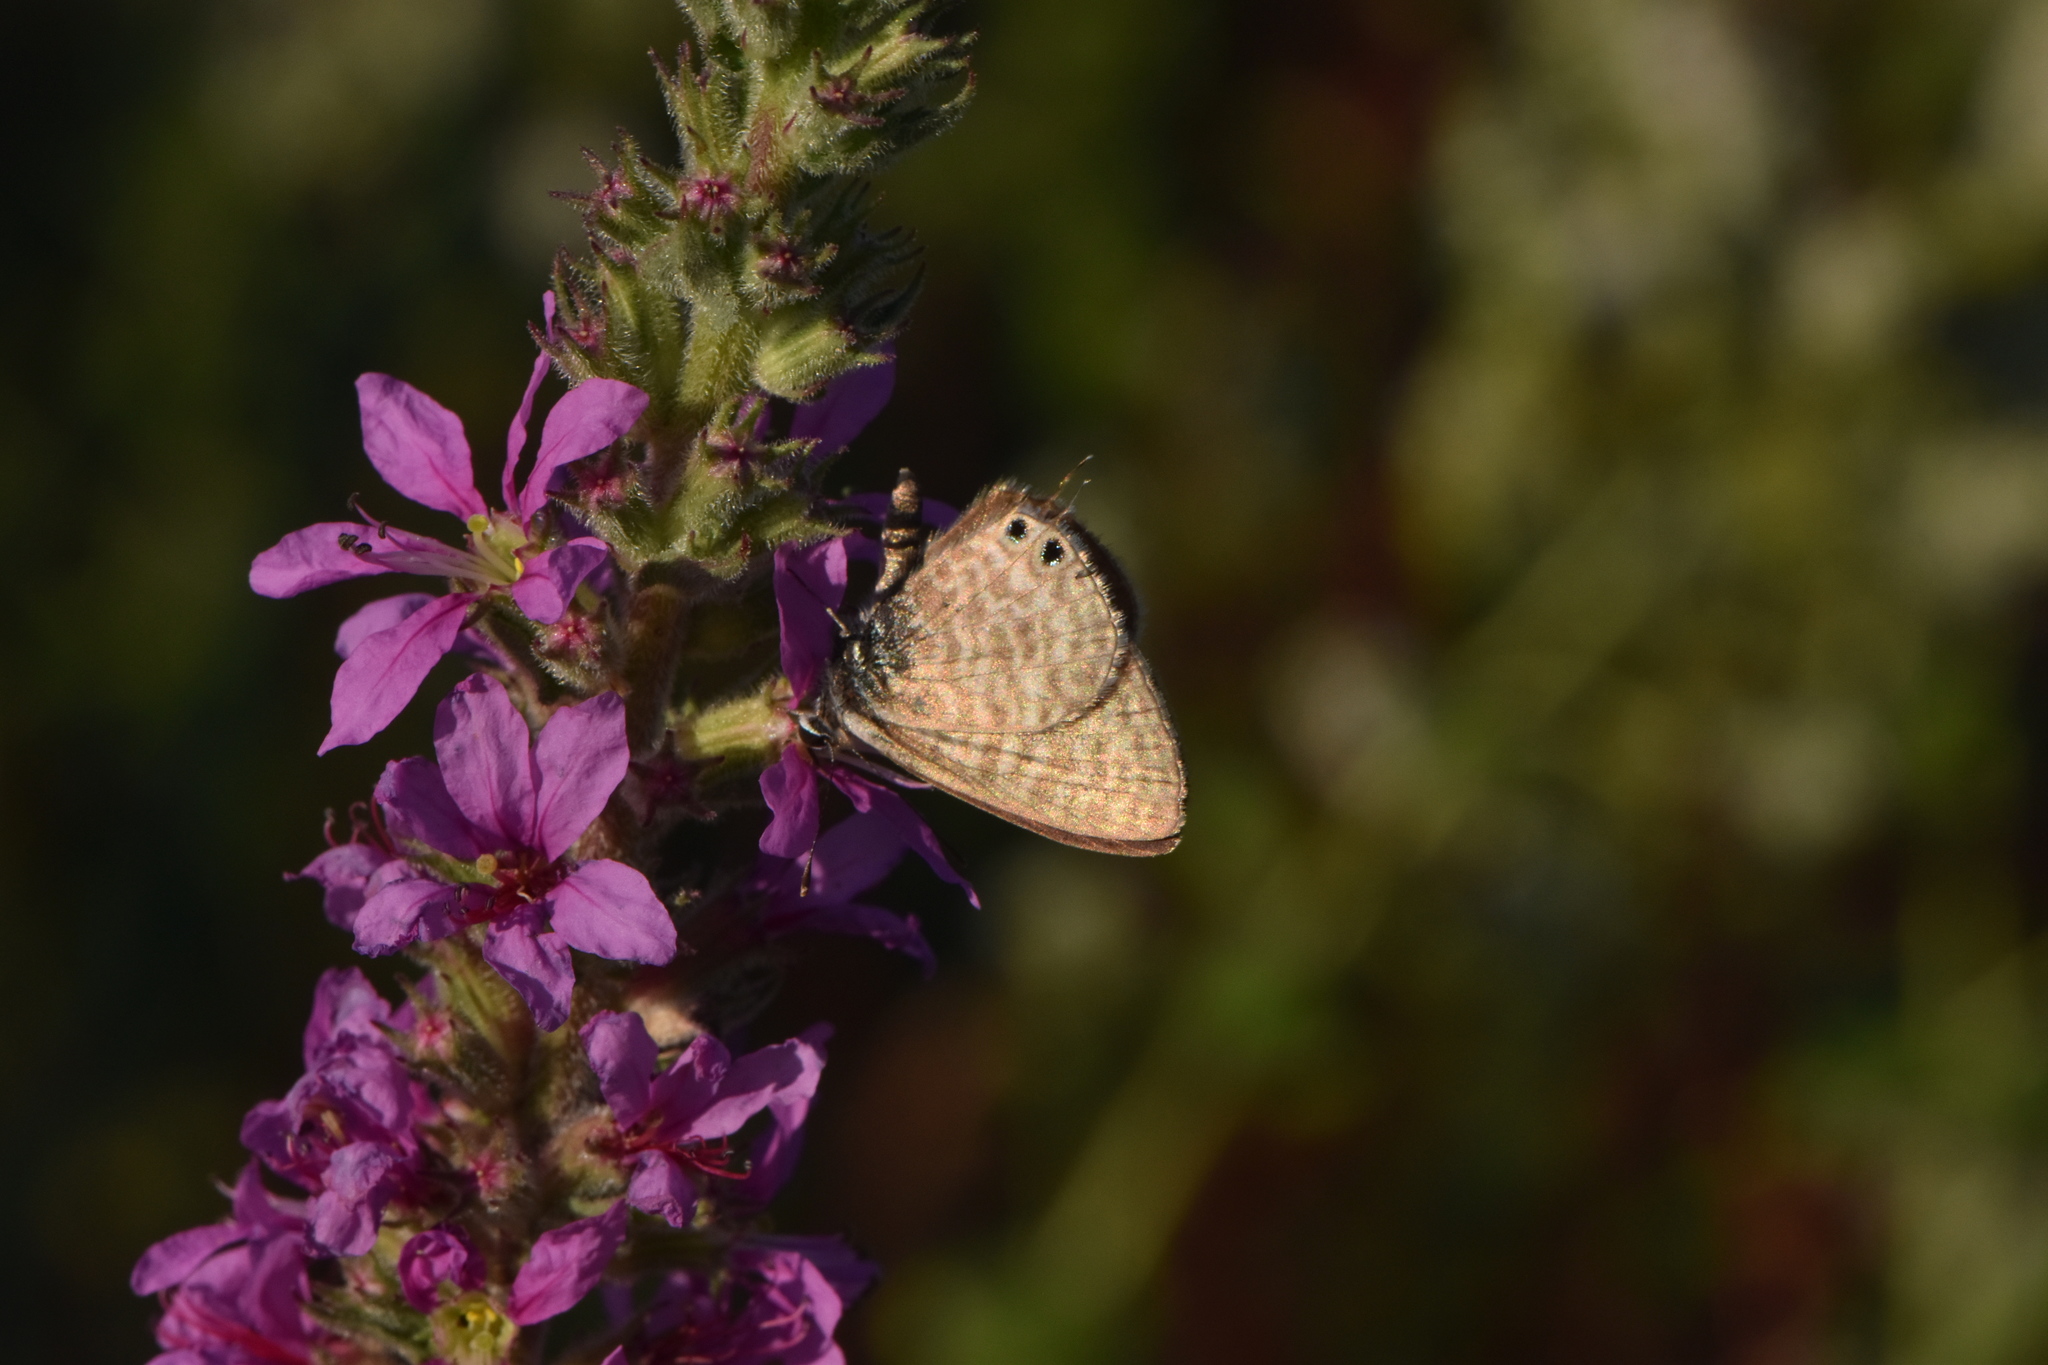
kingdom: Animalia
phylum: Arthropoda
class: Insecta
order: Lepidoptera
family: Lycaenidae
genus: Leptotes
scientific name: Leptotes pirithous
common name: Lang's short-tailed blue
